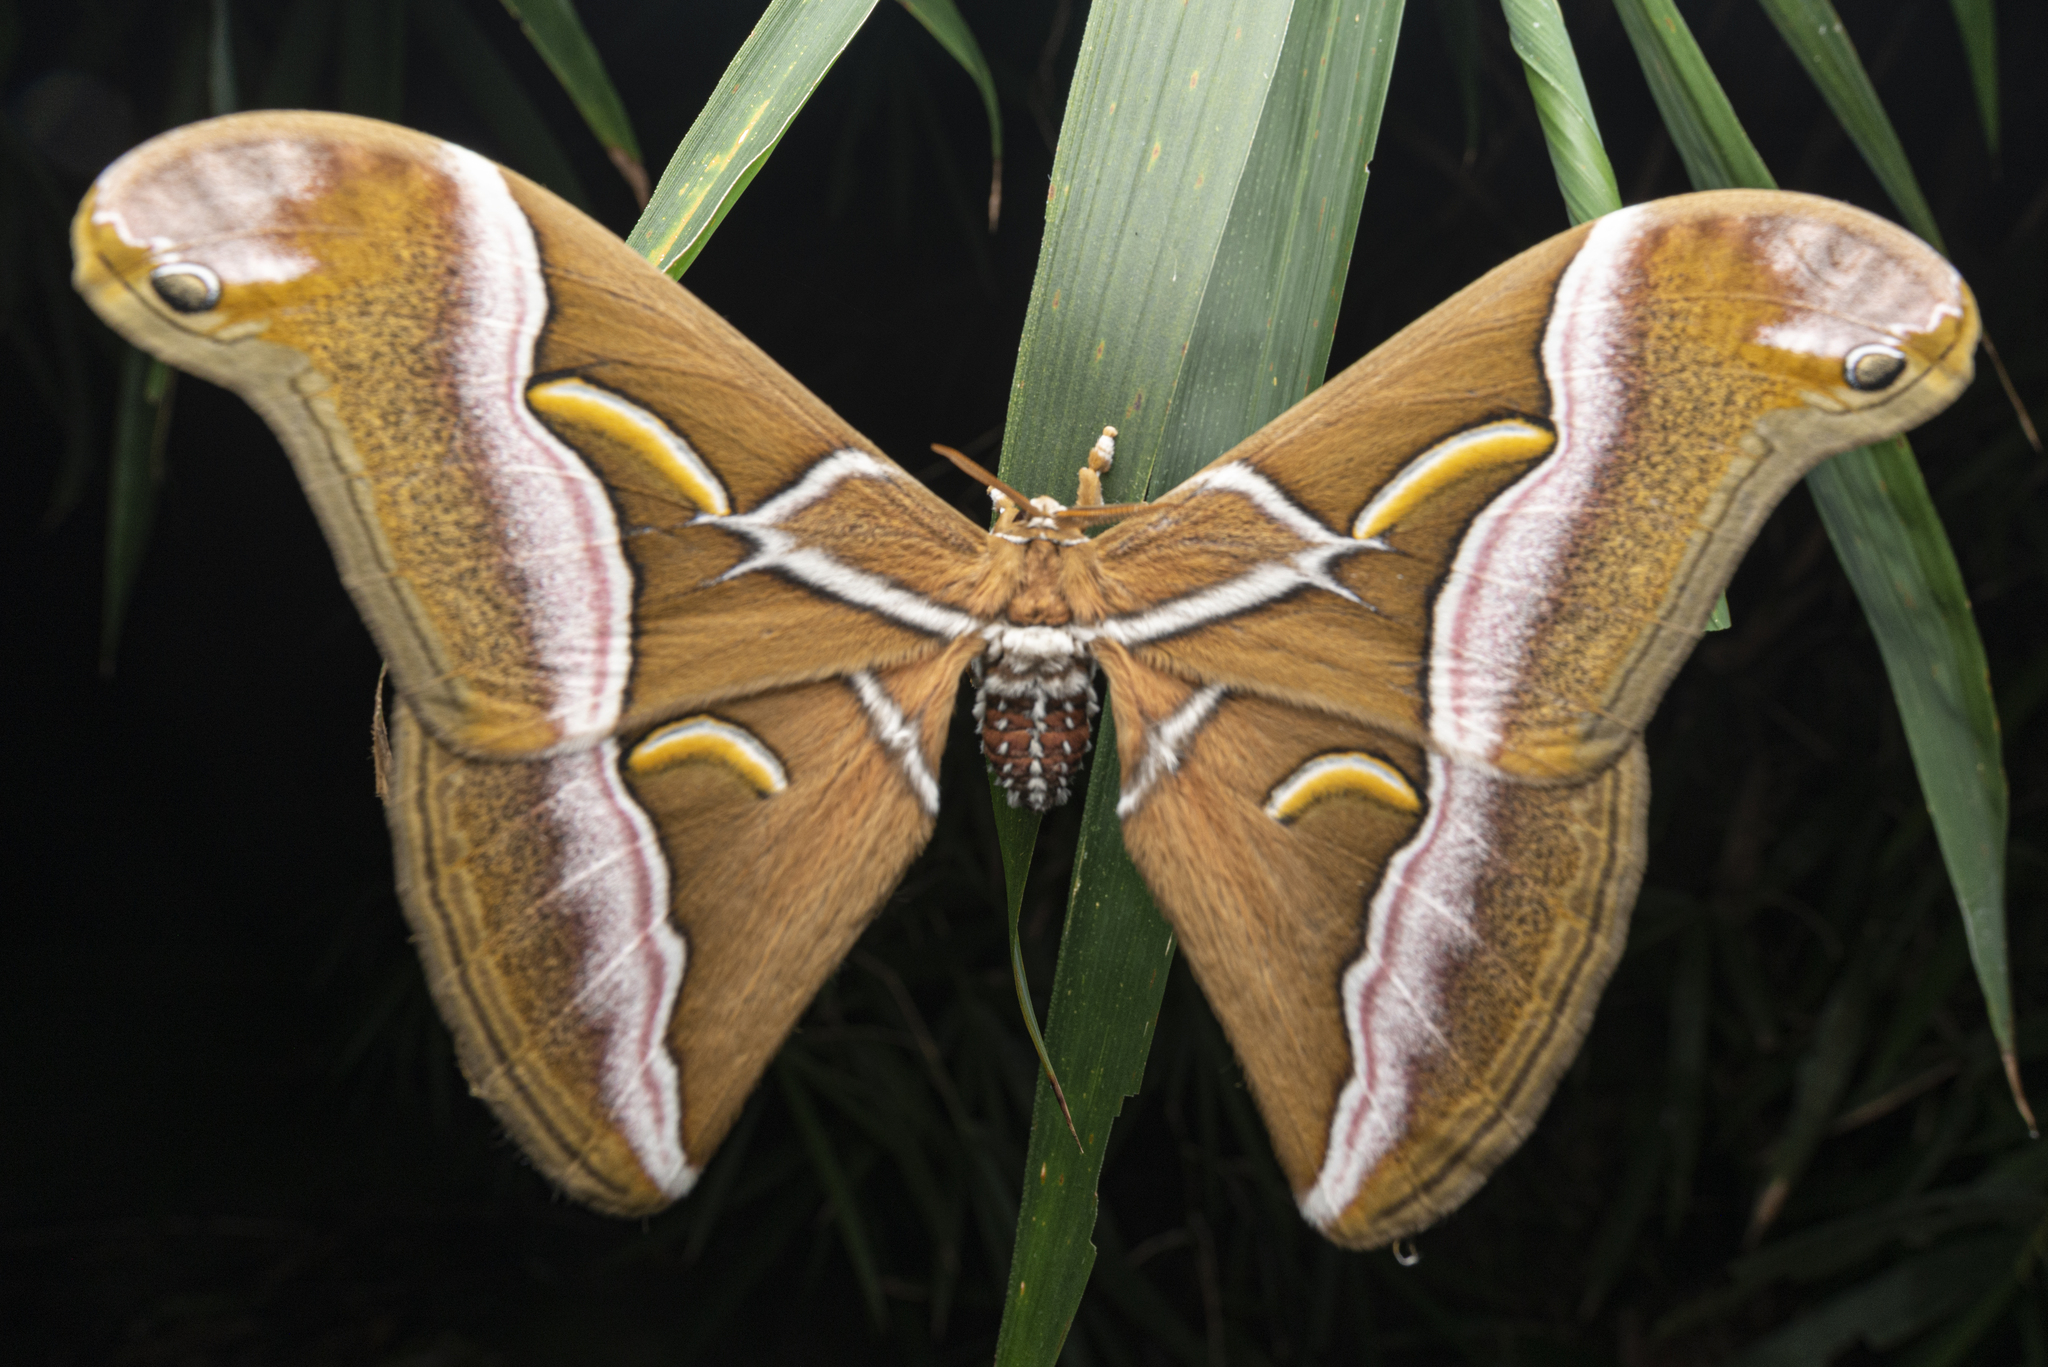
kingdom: Animalia
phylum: Arthropoda
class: Insecta
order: Lepidoptera
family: Saturniidae
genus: Samia
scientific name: Samia wangi
